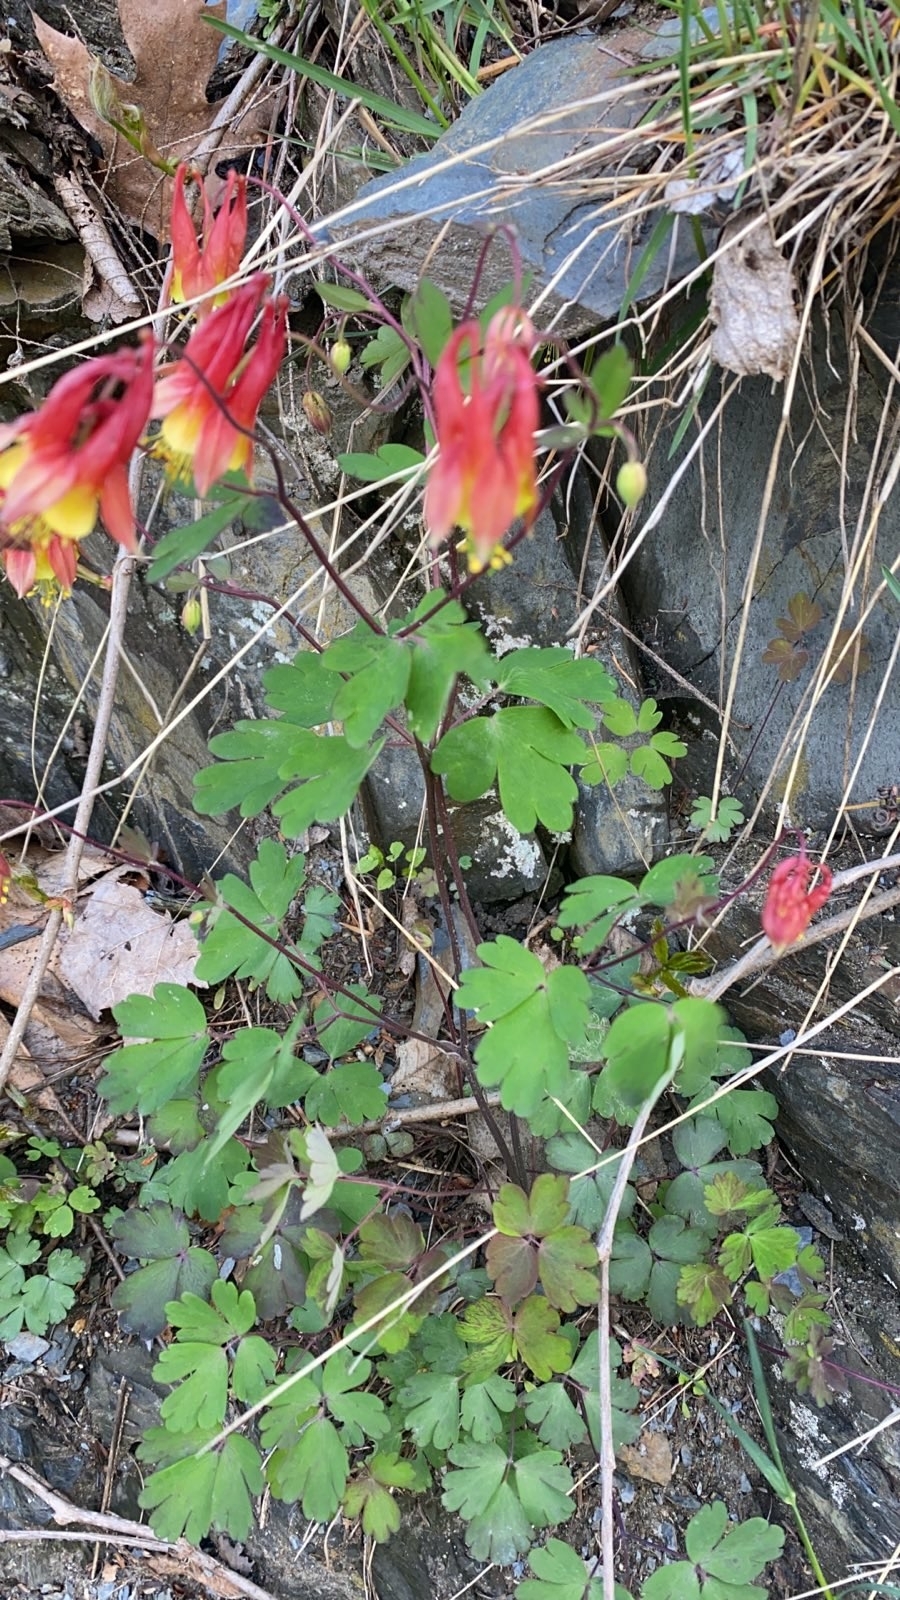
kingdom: Plantae
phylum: Tracheophyta
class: Magnoliopsida
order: Ranunculales
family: Ranunculaceae
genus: Aquilegia
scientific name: Aquilegia canadensis
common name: American columbine
